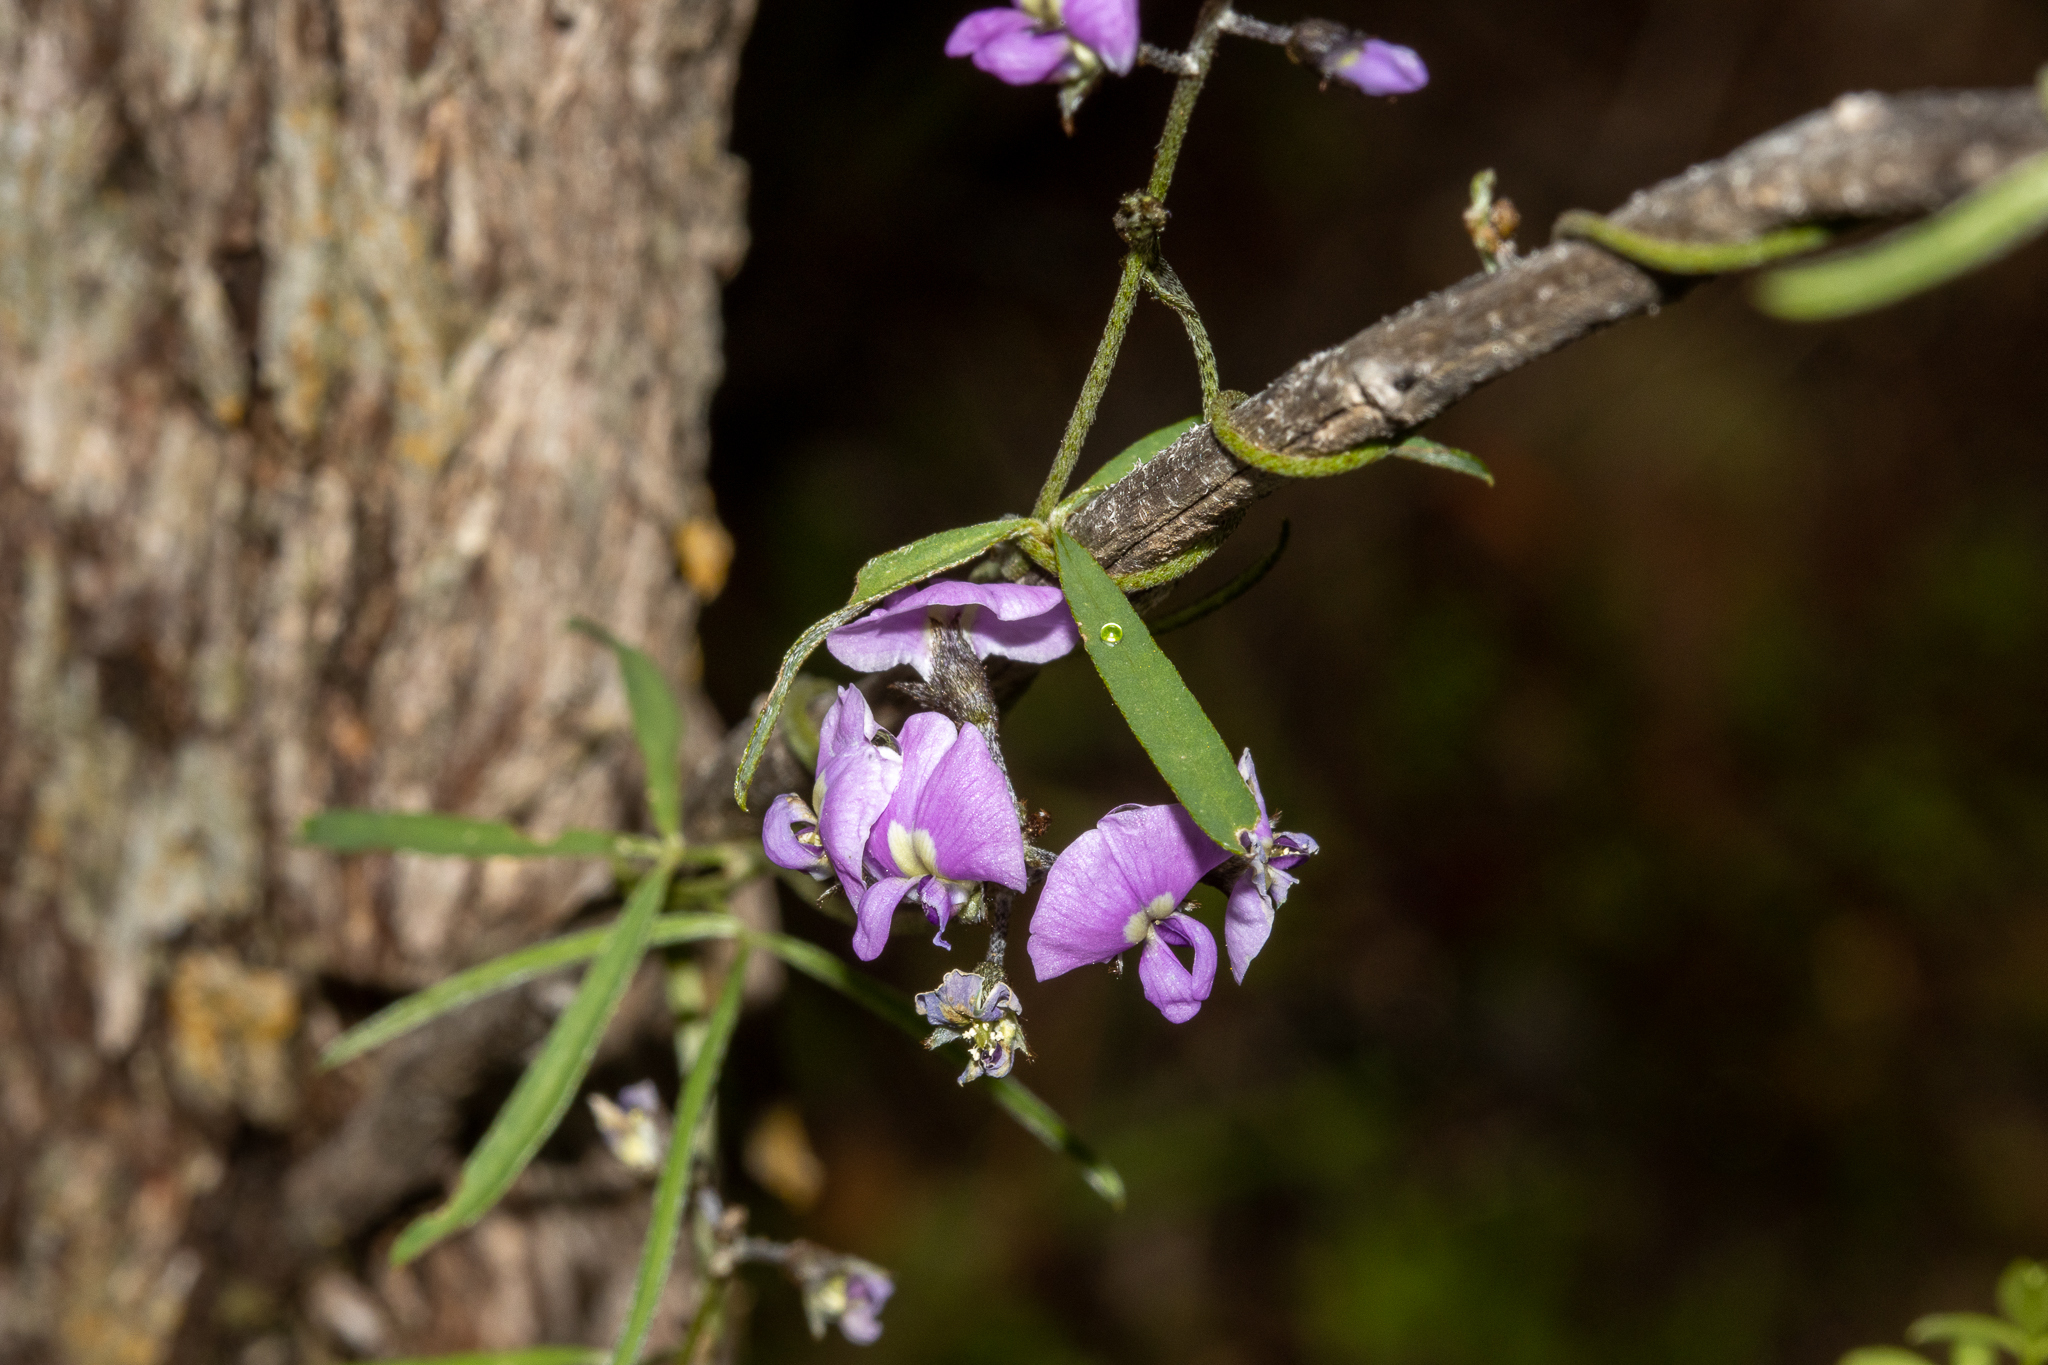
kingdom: Plantae
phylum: Tracheophyta
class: Magnoliopsida
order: Fabales
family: Fabaceae
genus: Glycine
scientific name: Glycine rubiginosa
